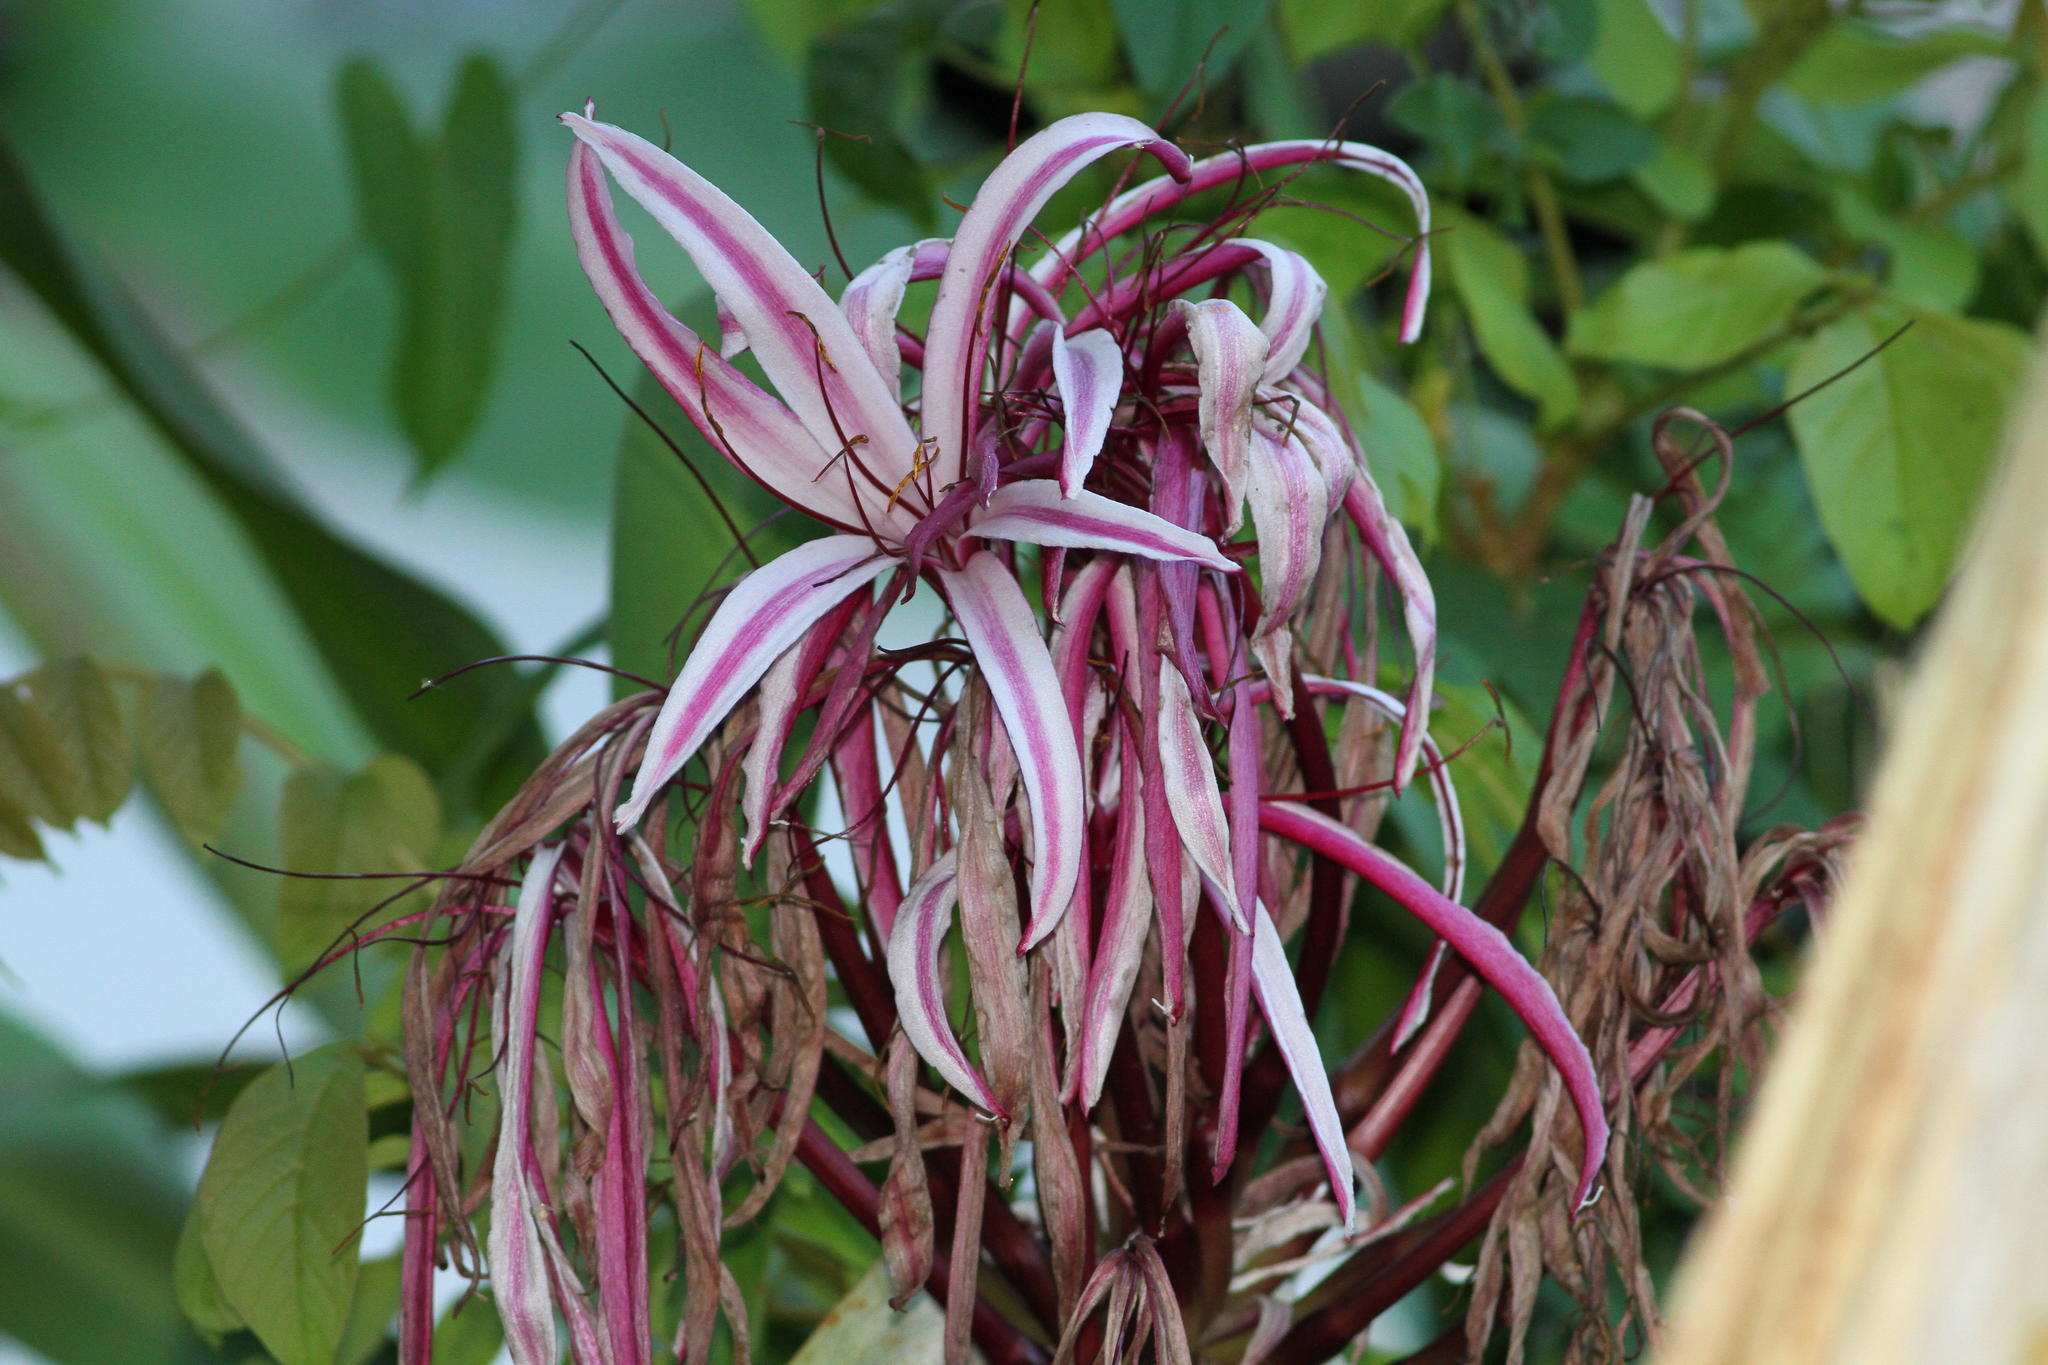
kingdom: Plantae
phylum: Tracheophyta
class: Liliopsida
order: Asparagales
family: Amaryllidaceae
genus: Crinum
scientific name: Crinum erubescens
